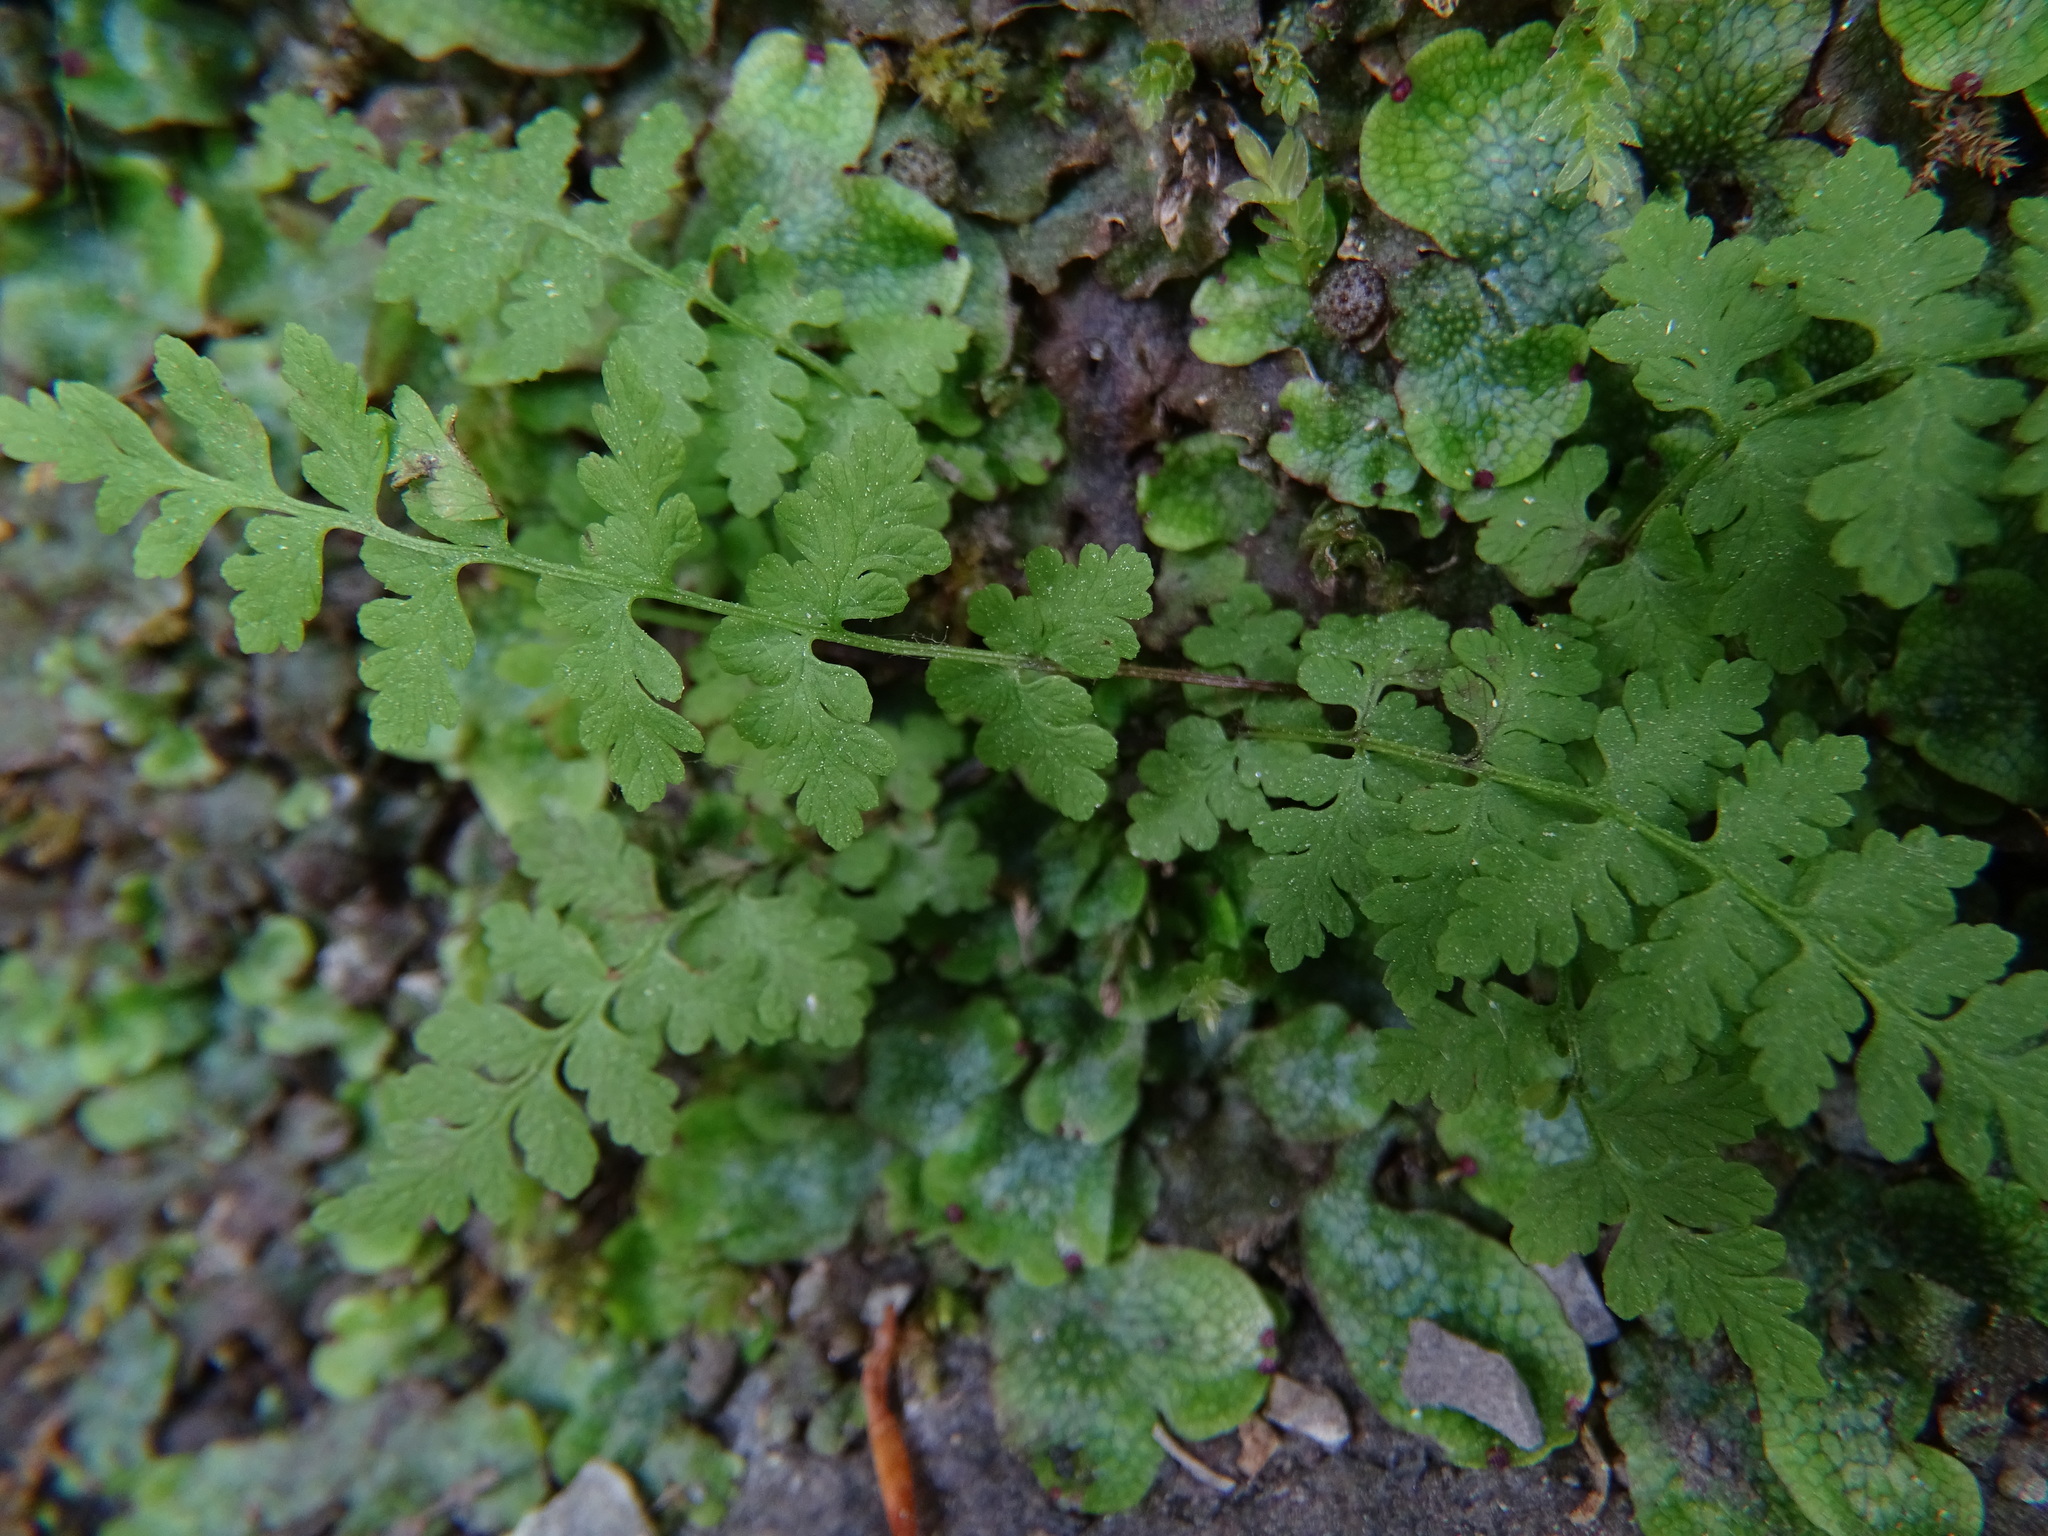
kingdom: Plantae
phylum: Tracheophyta
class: Polypodiopsida
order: Polypodiales
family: Cystopteridaceae
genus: Cystopteris
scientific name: Cystopteris fragilis
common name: Brittle bladder fern
